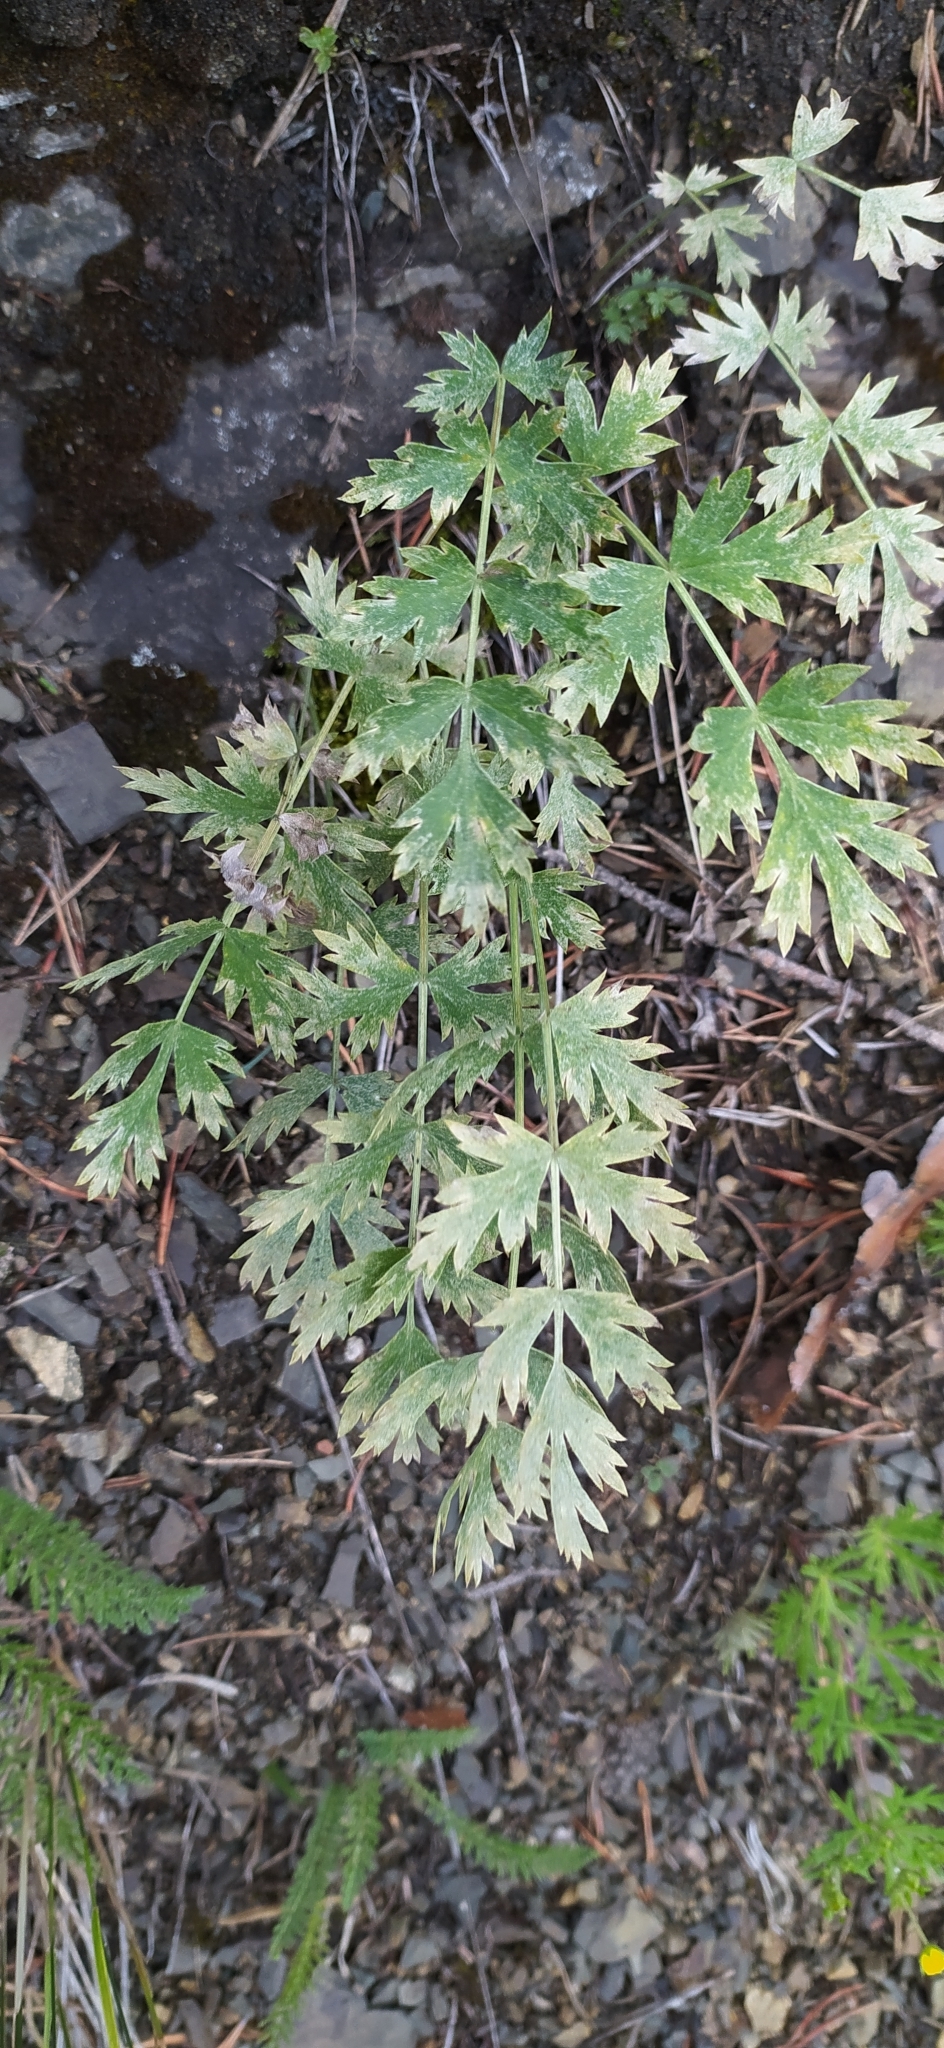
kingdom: Plantae
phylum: Tracheophyta
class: Magnoliopsida
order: Apiales
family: Apiaceae
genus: Seseli
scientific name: Seseli krylovii
